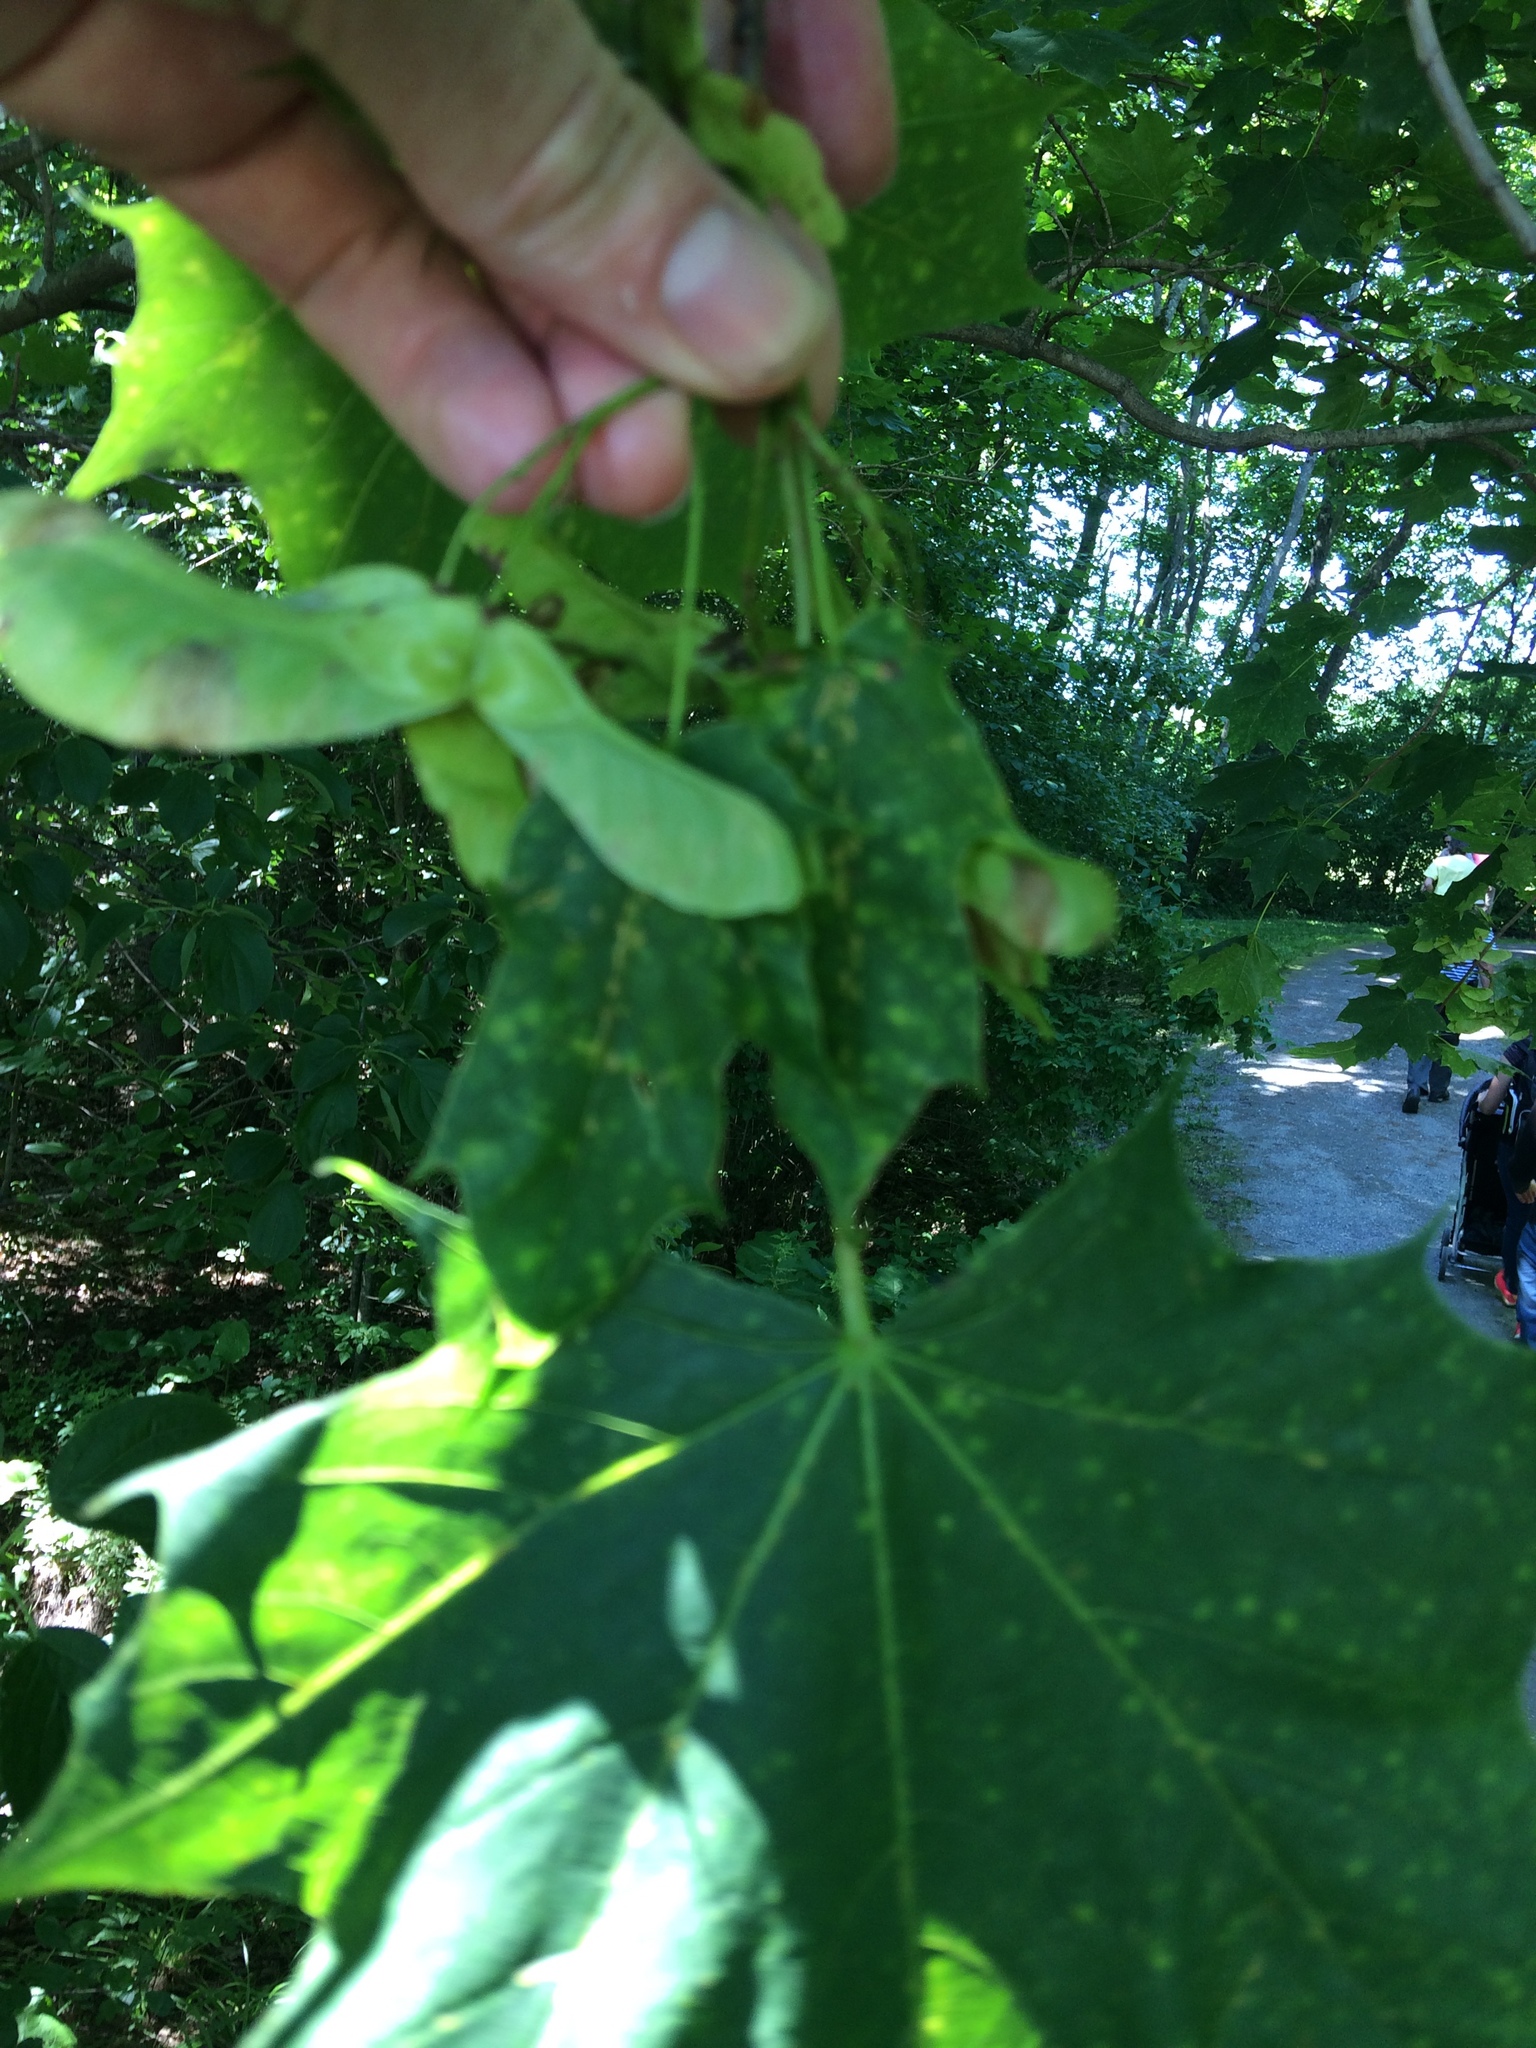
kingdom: Plantae
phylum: Tracheophyta
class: Magnoliopsida
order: Sapindales
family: Sapindaceae
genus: Acer
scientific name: Acer platanoides
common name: Norway maple
